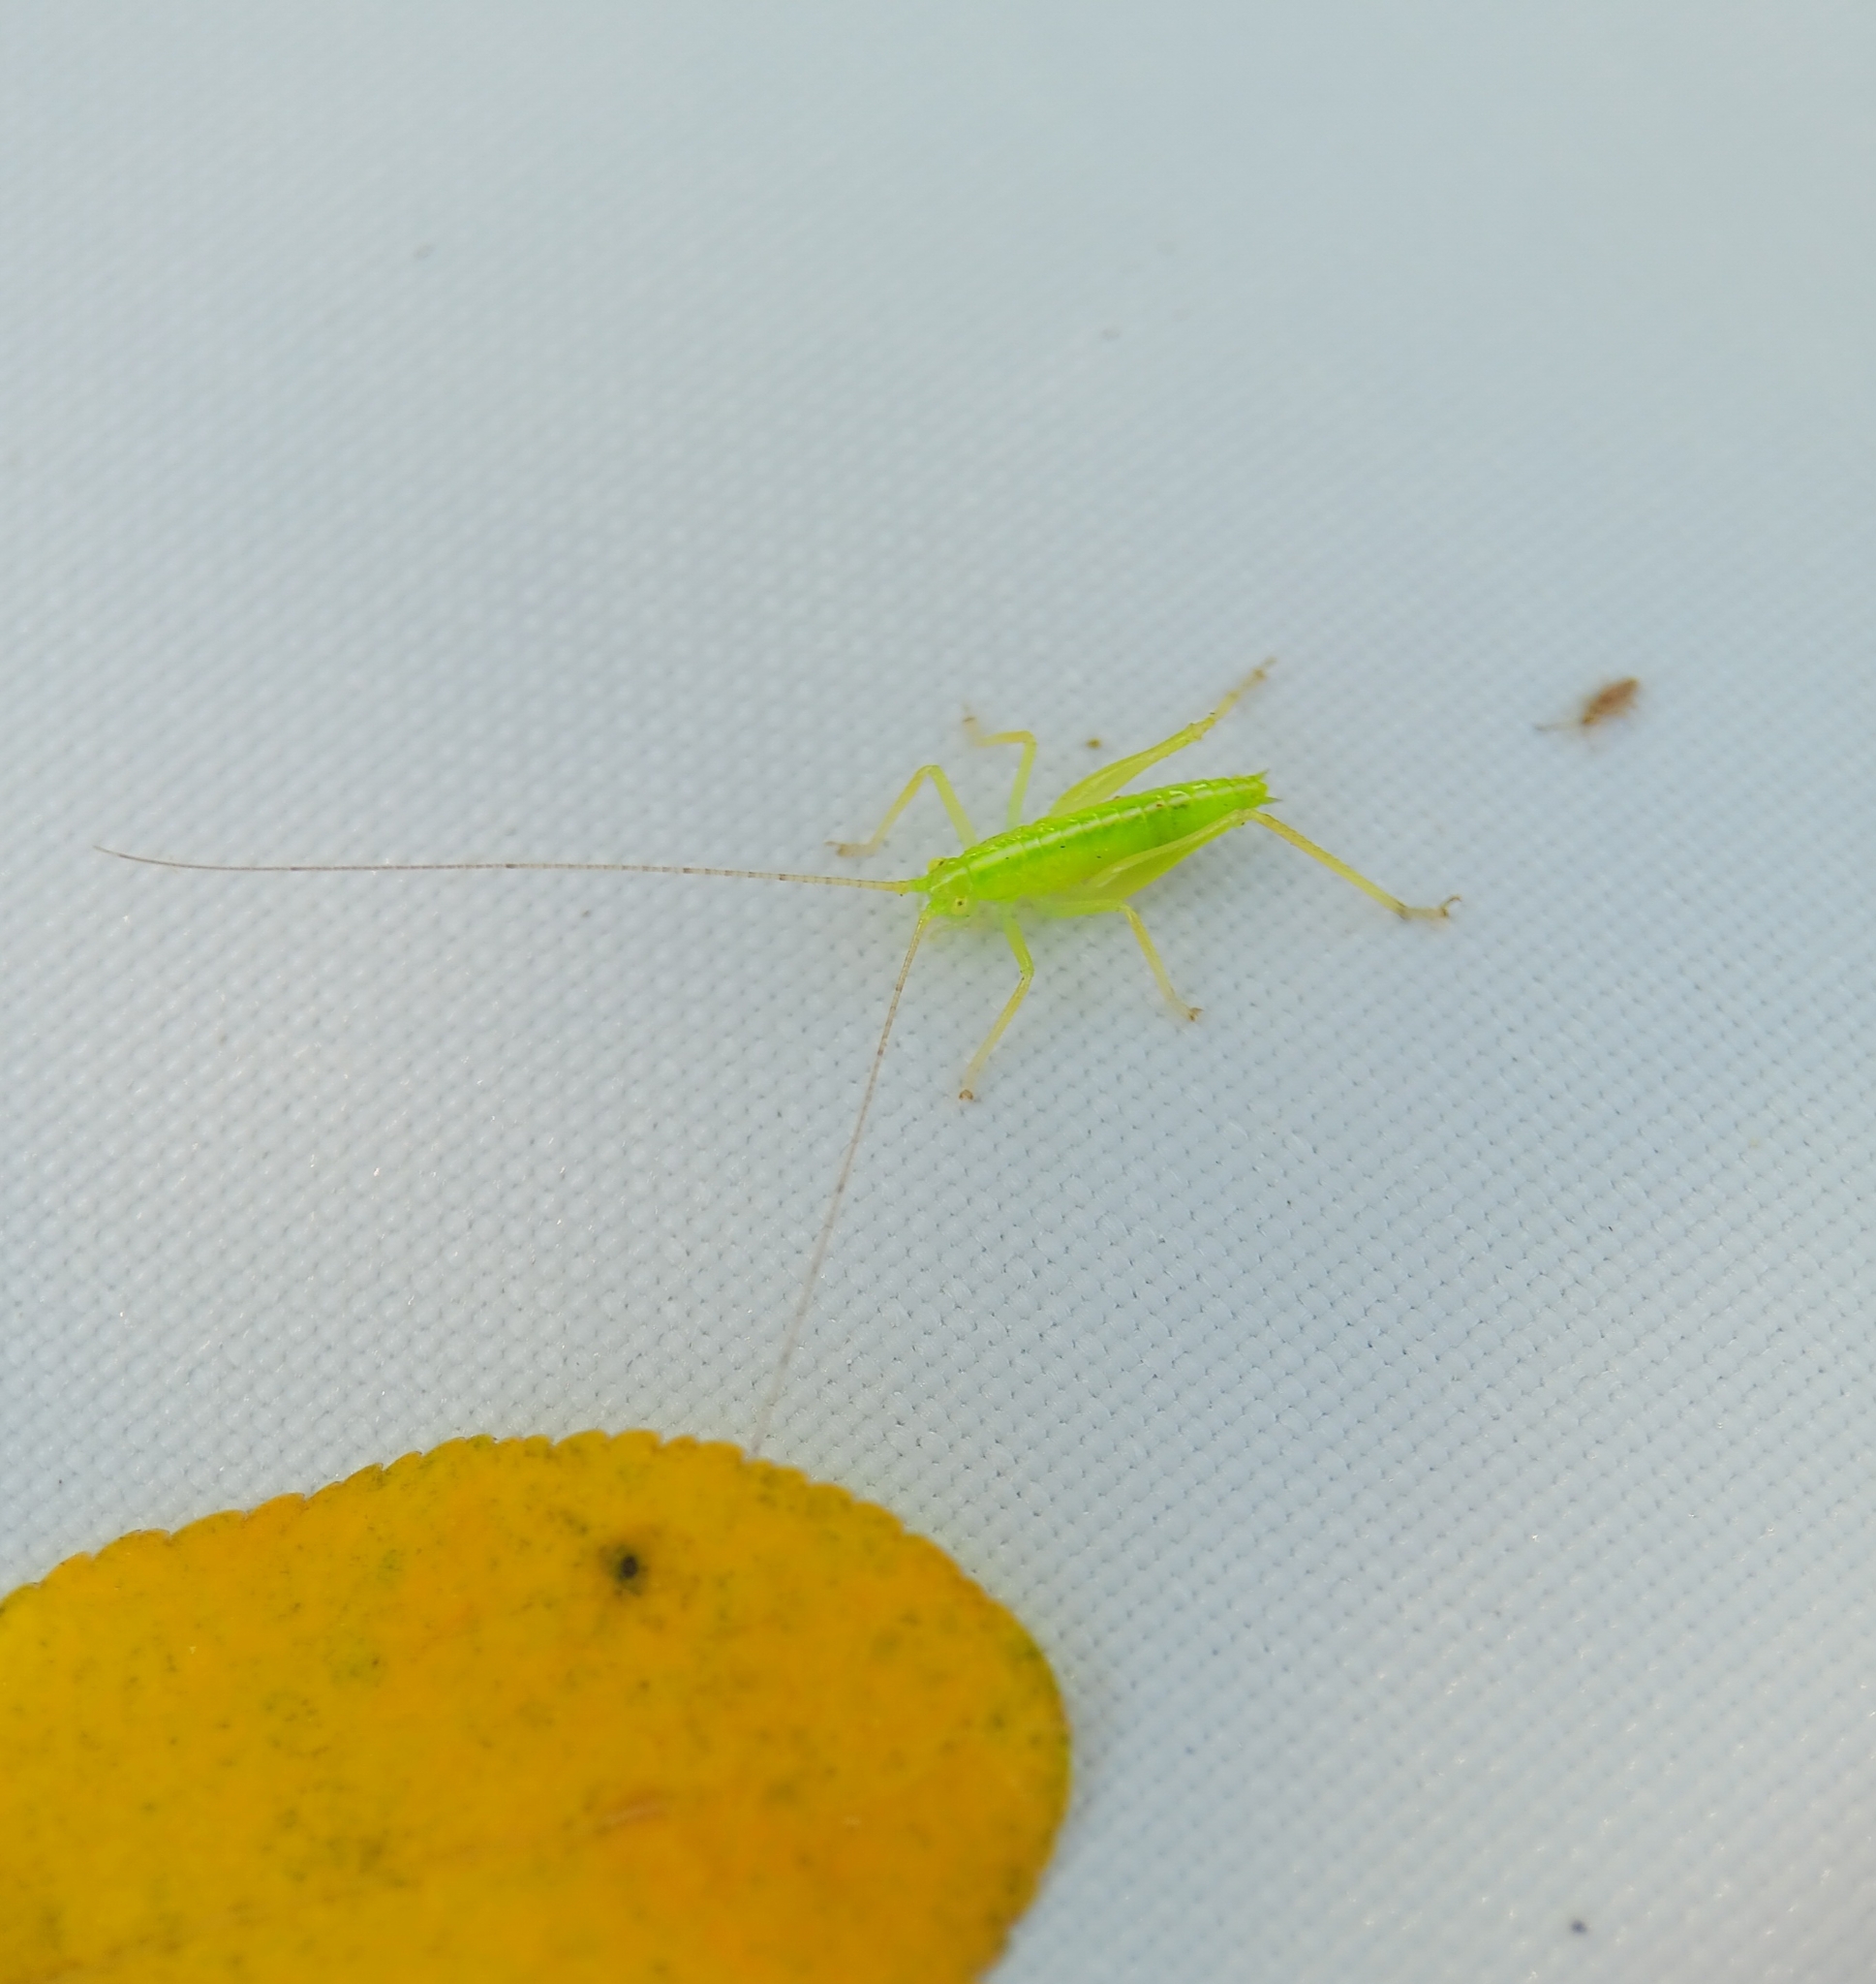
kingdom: Animalia
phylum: Arthropoda
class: Insecta
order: Orthoptera
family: Tettigoniidae
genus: Meconema
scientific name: Meconema thalassinum
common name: Oak bush-cricket
